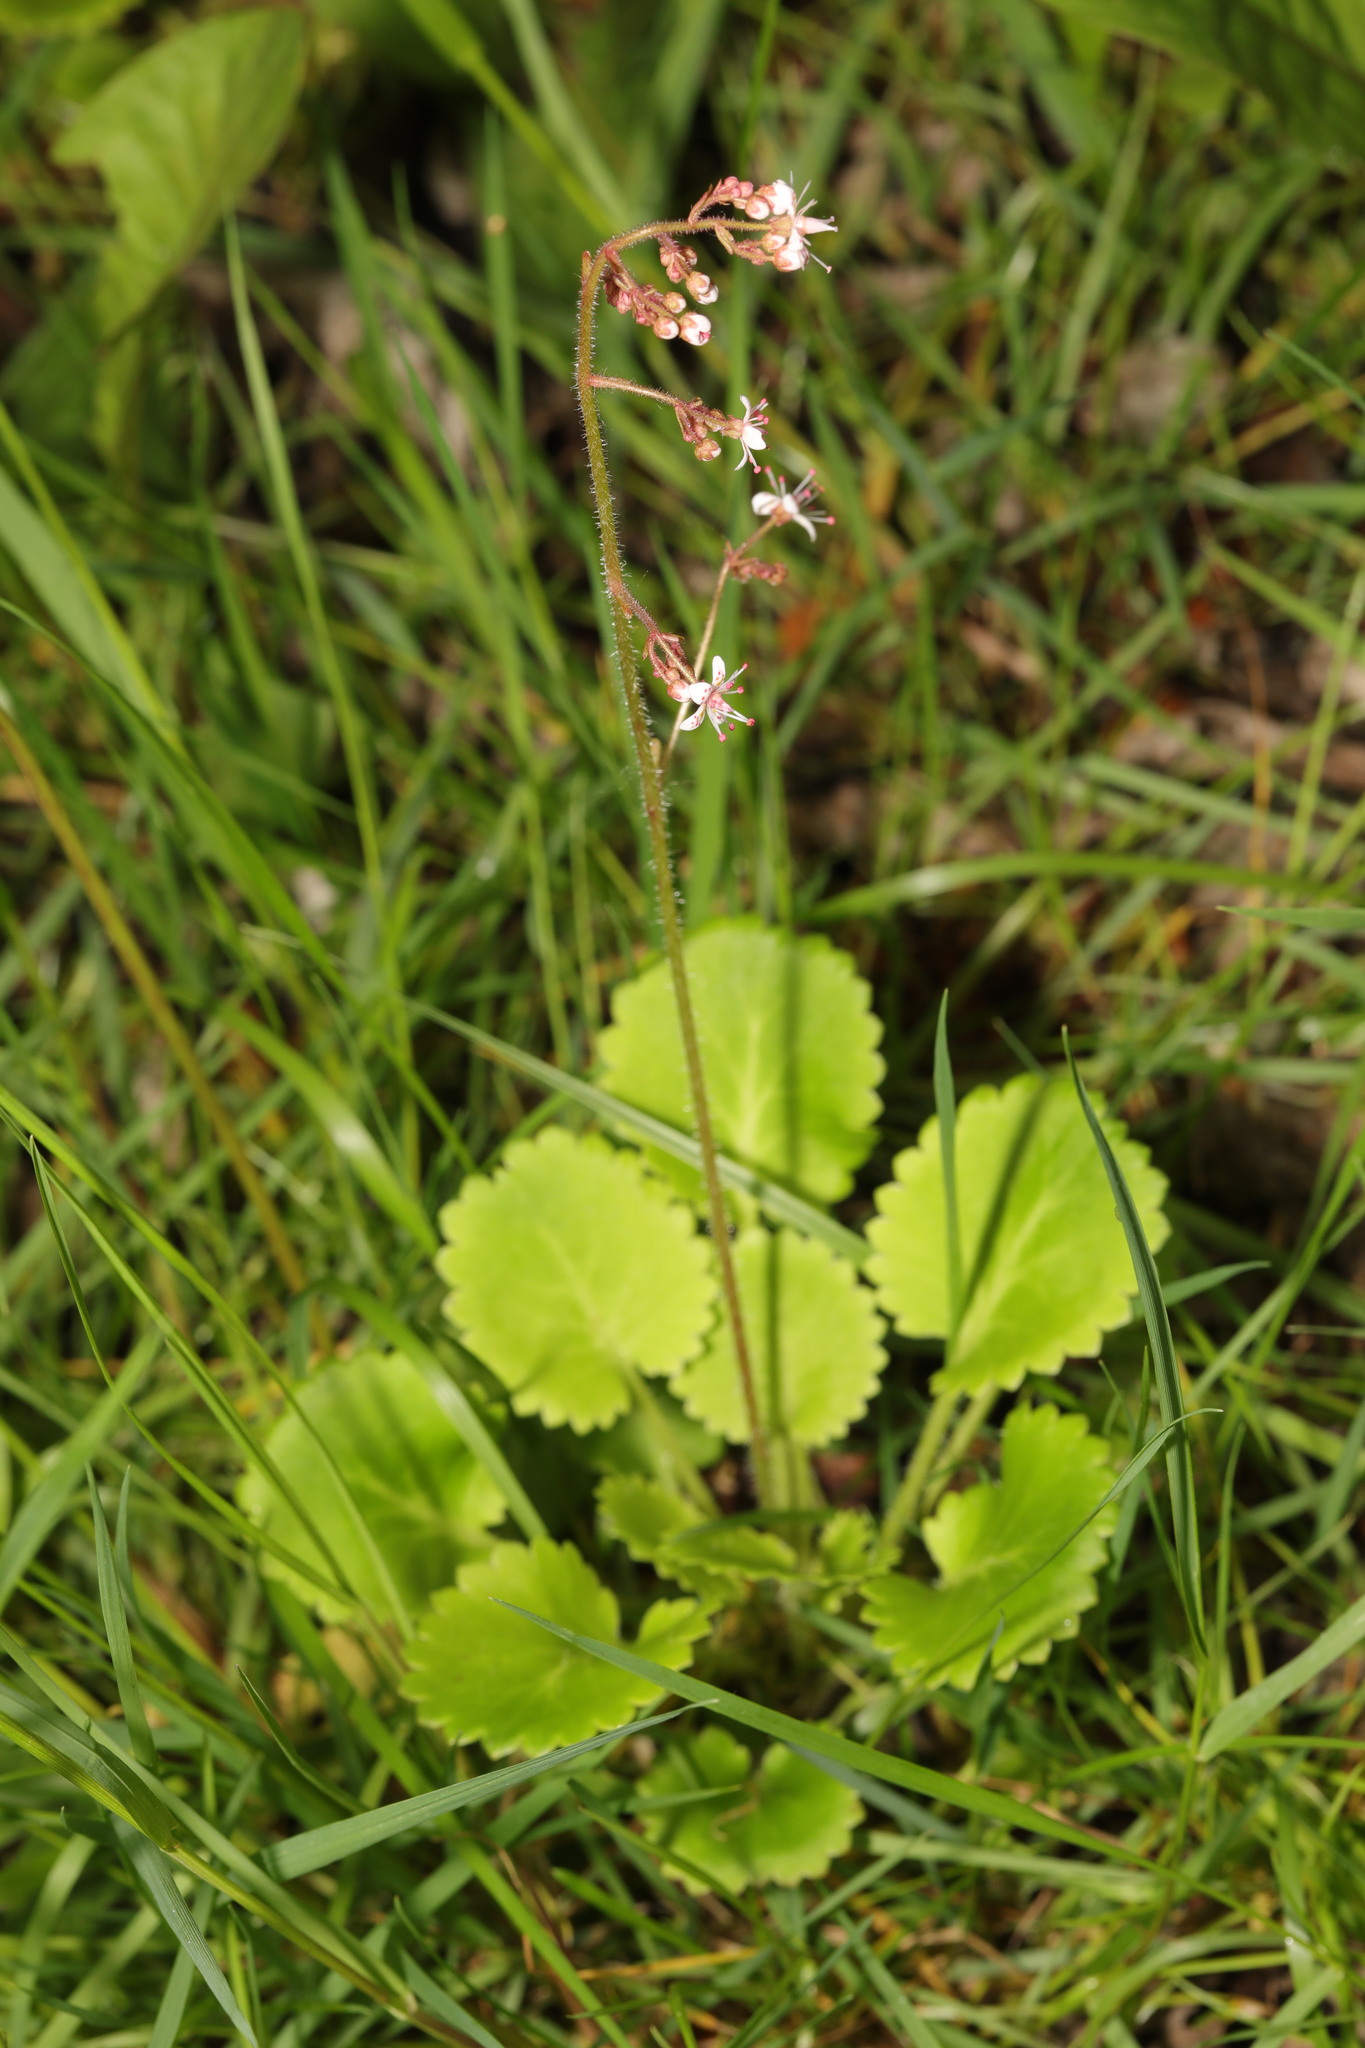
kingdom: Plantae
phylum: Tracheophyta
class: Magnoliopsida
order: Saxifragales
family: Saxifragaceae
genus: Saxifraga
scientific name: Saxifraga urbium
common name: Londonpride
